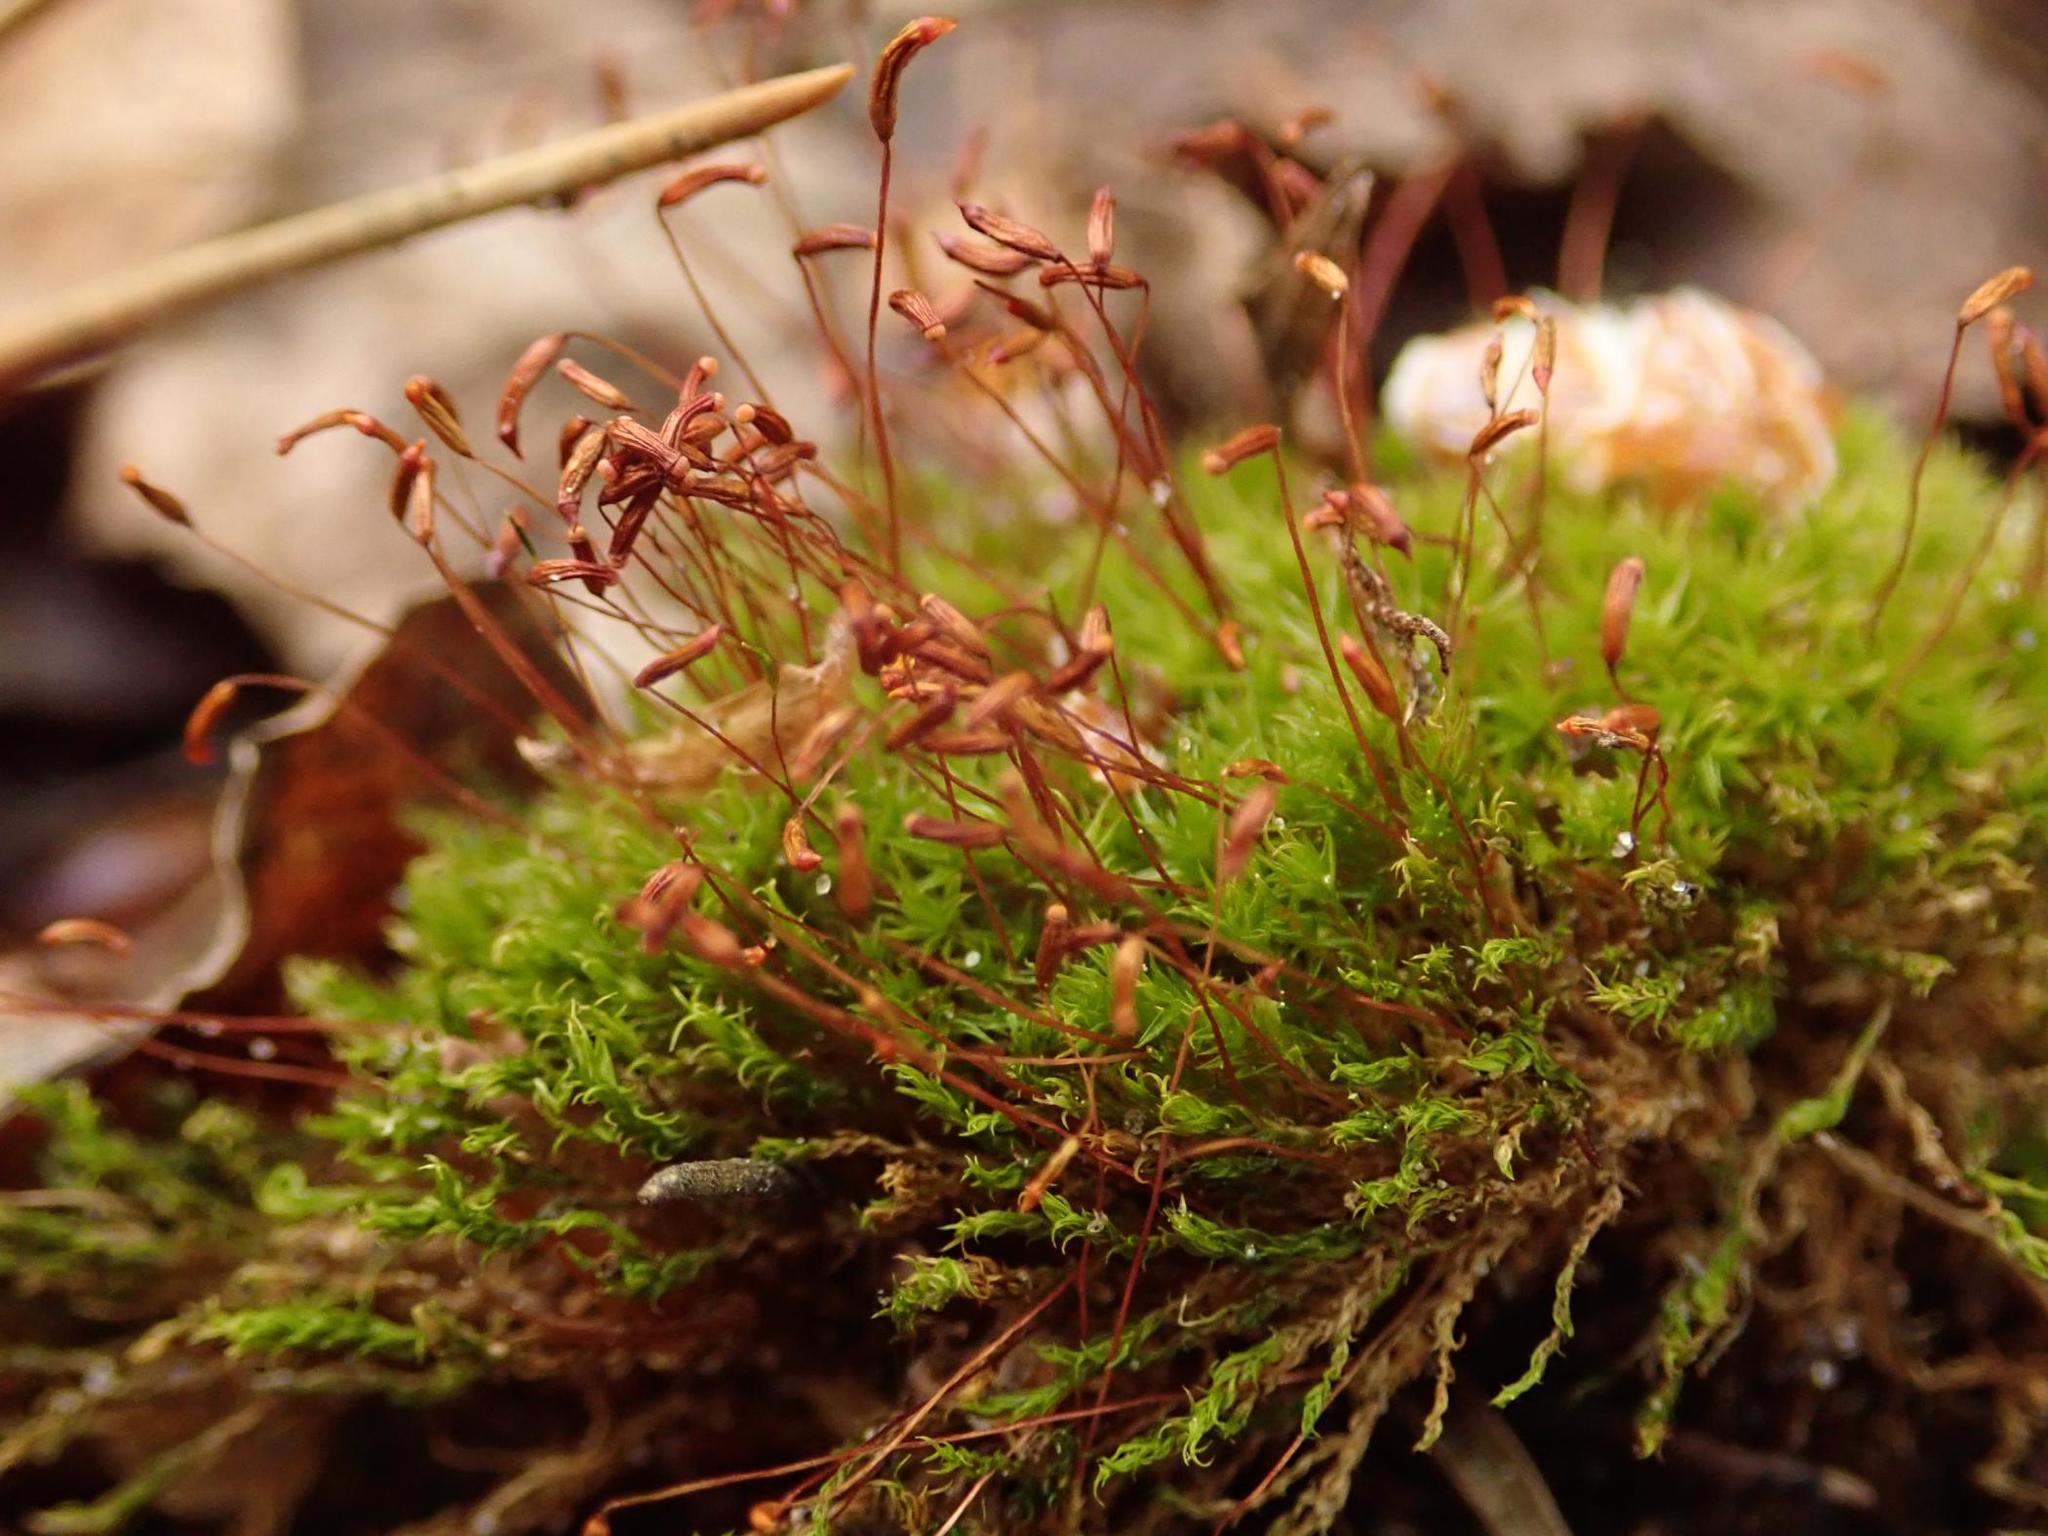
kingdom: Plantae
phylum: Bryophyta
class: Bryopsida
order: Dicranales
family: Ditrichaceae
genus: Ceratodon
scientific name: Ceratodon purpureus
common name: Redshank
